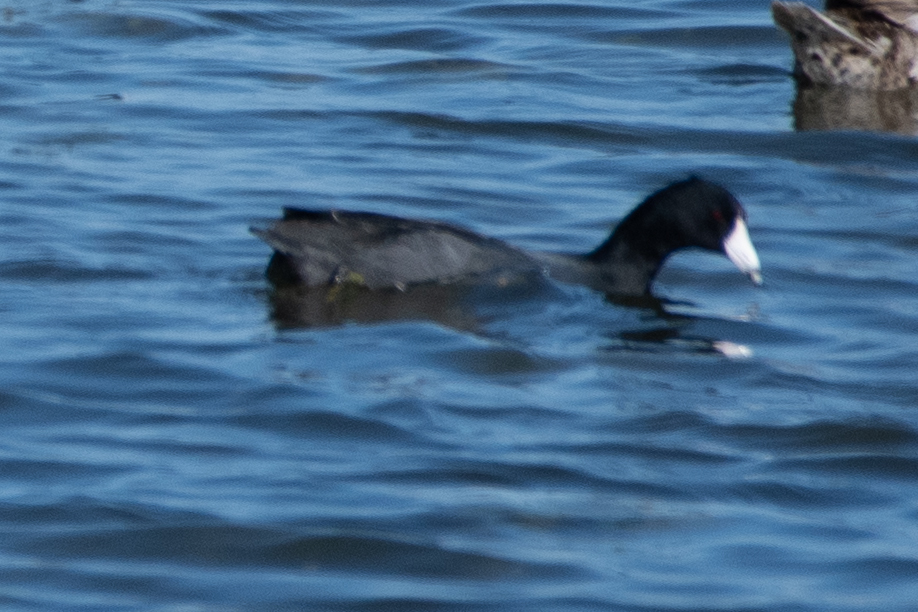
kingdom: Animalia
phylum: Chordata
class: Aves
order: Gruiformes
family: Rallidae
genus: Fulica
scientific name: Fulica americana
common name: American coot
